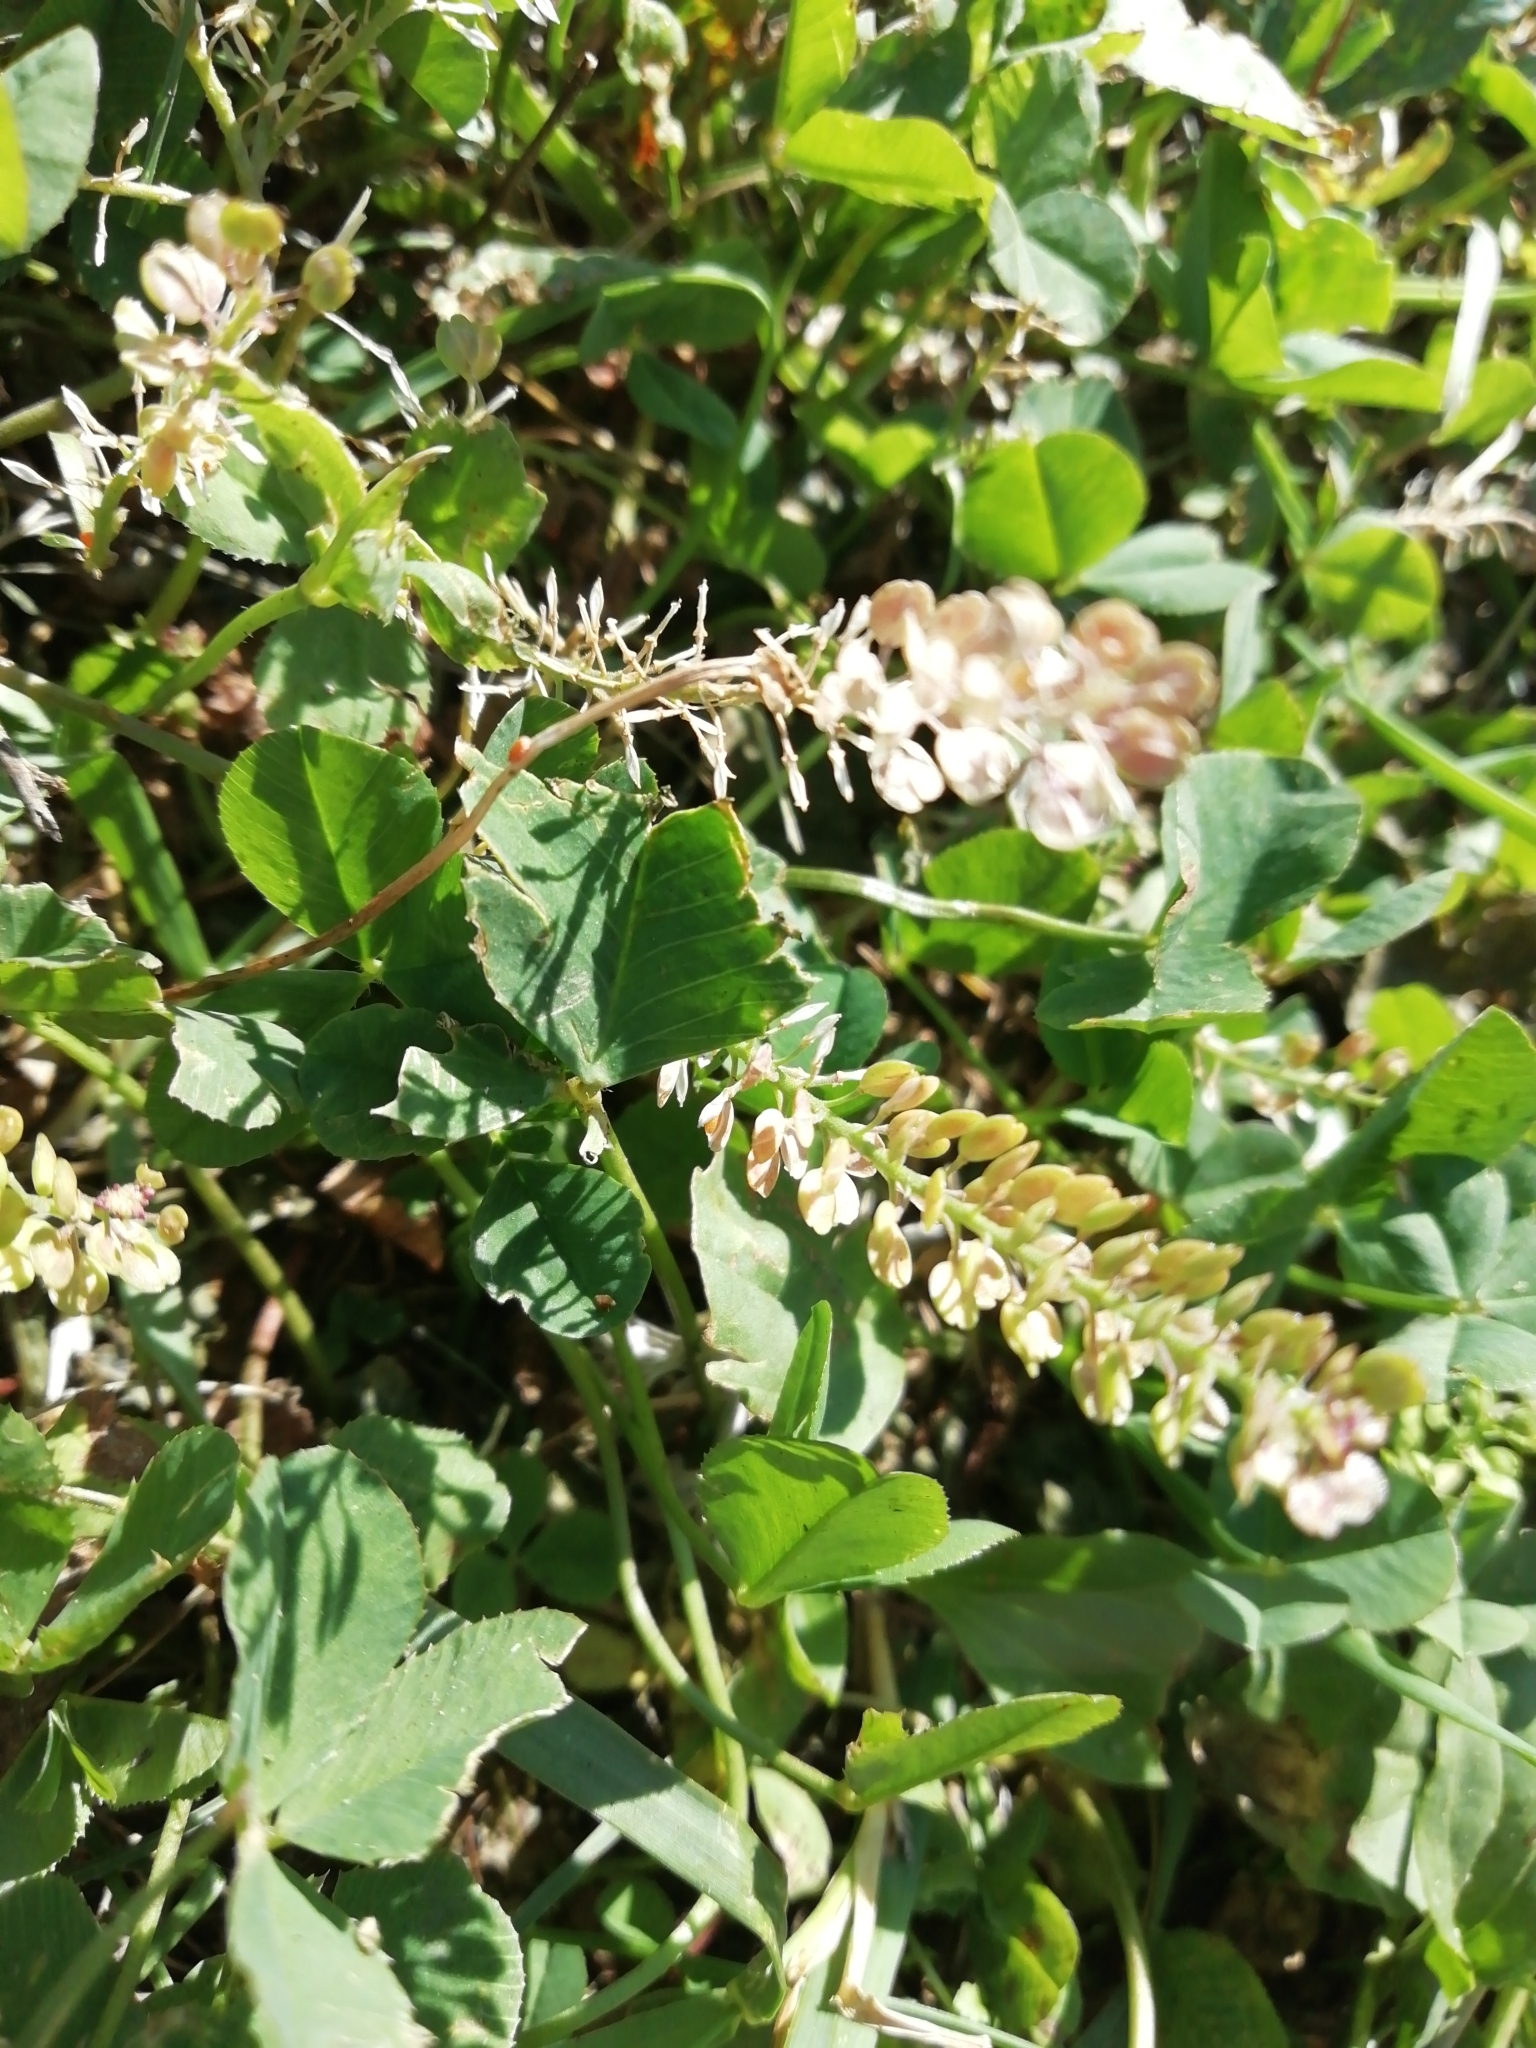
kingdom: Plantae
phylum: Tracheophyta
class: Magnoliopsida
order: Brassicales
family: Brassicaceae
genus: Lepidium
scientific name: Lepidium densiflorum
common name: Miner's pepperwort
